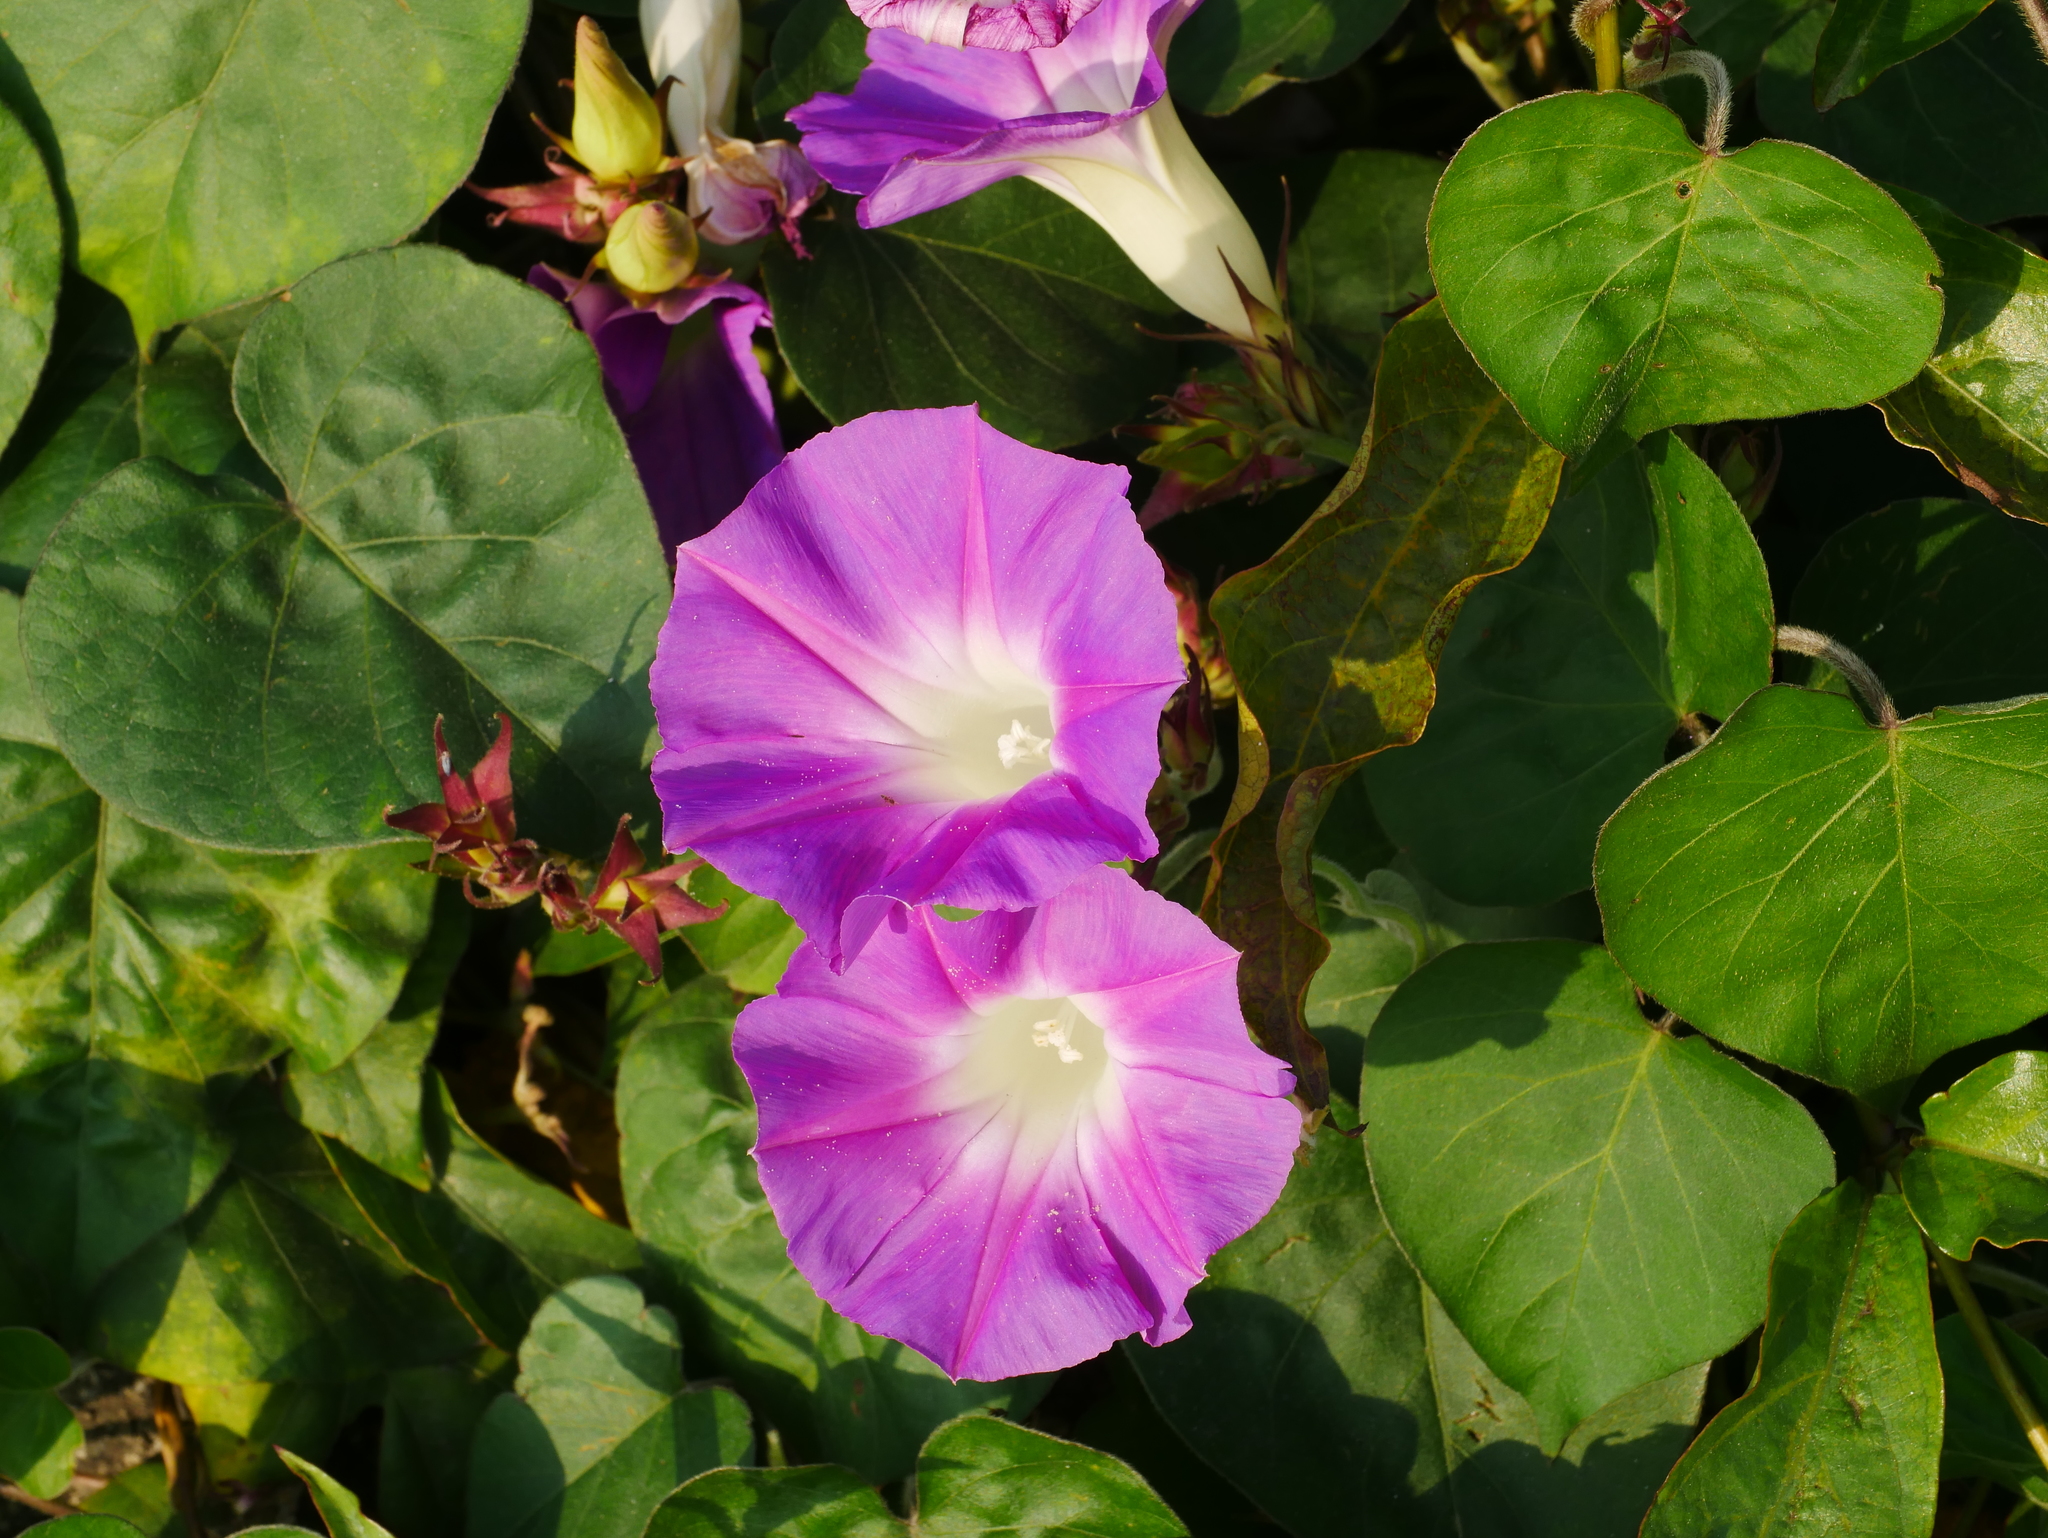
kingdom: Plantae
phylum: Tracheophyta
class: Magnoliopsida
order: Solanales
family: Convolvulaceae
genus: Ipomoea
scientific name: Ipomoea indica
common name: Blue dawnflower
